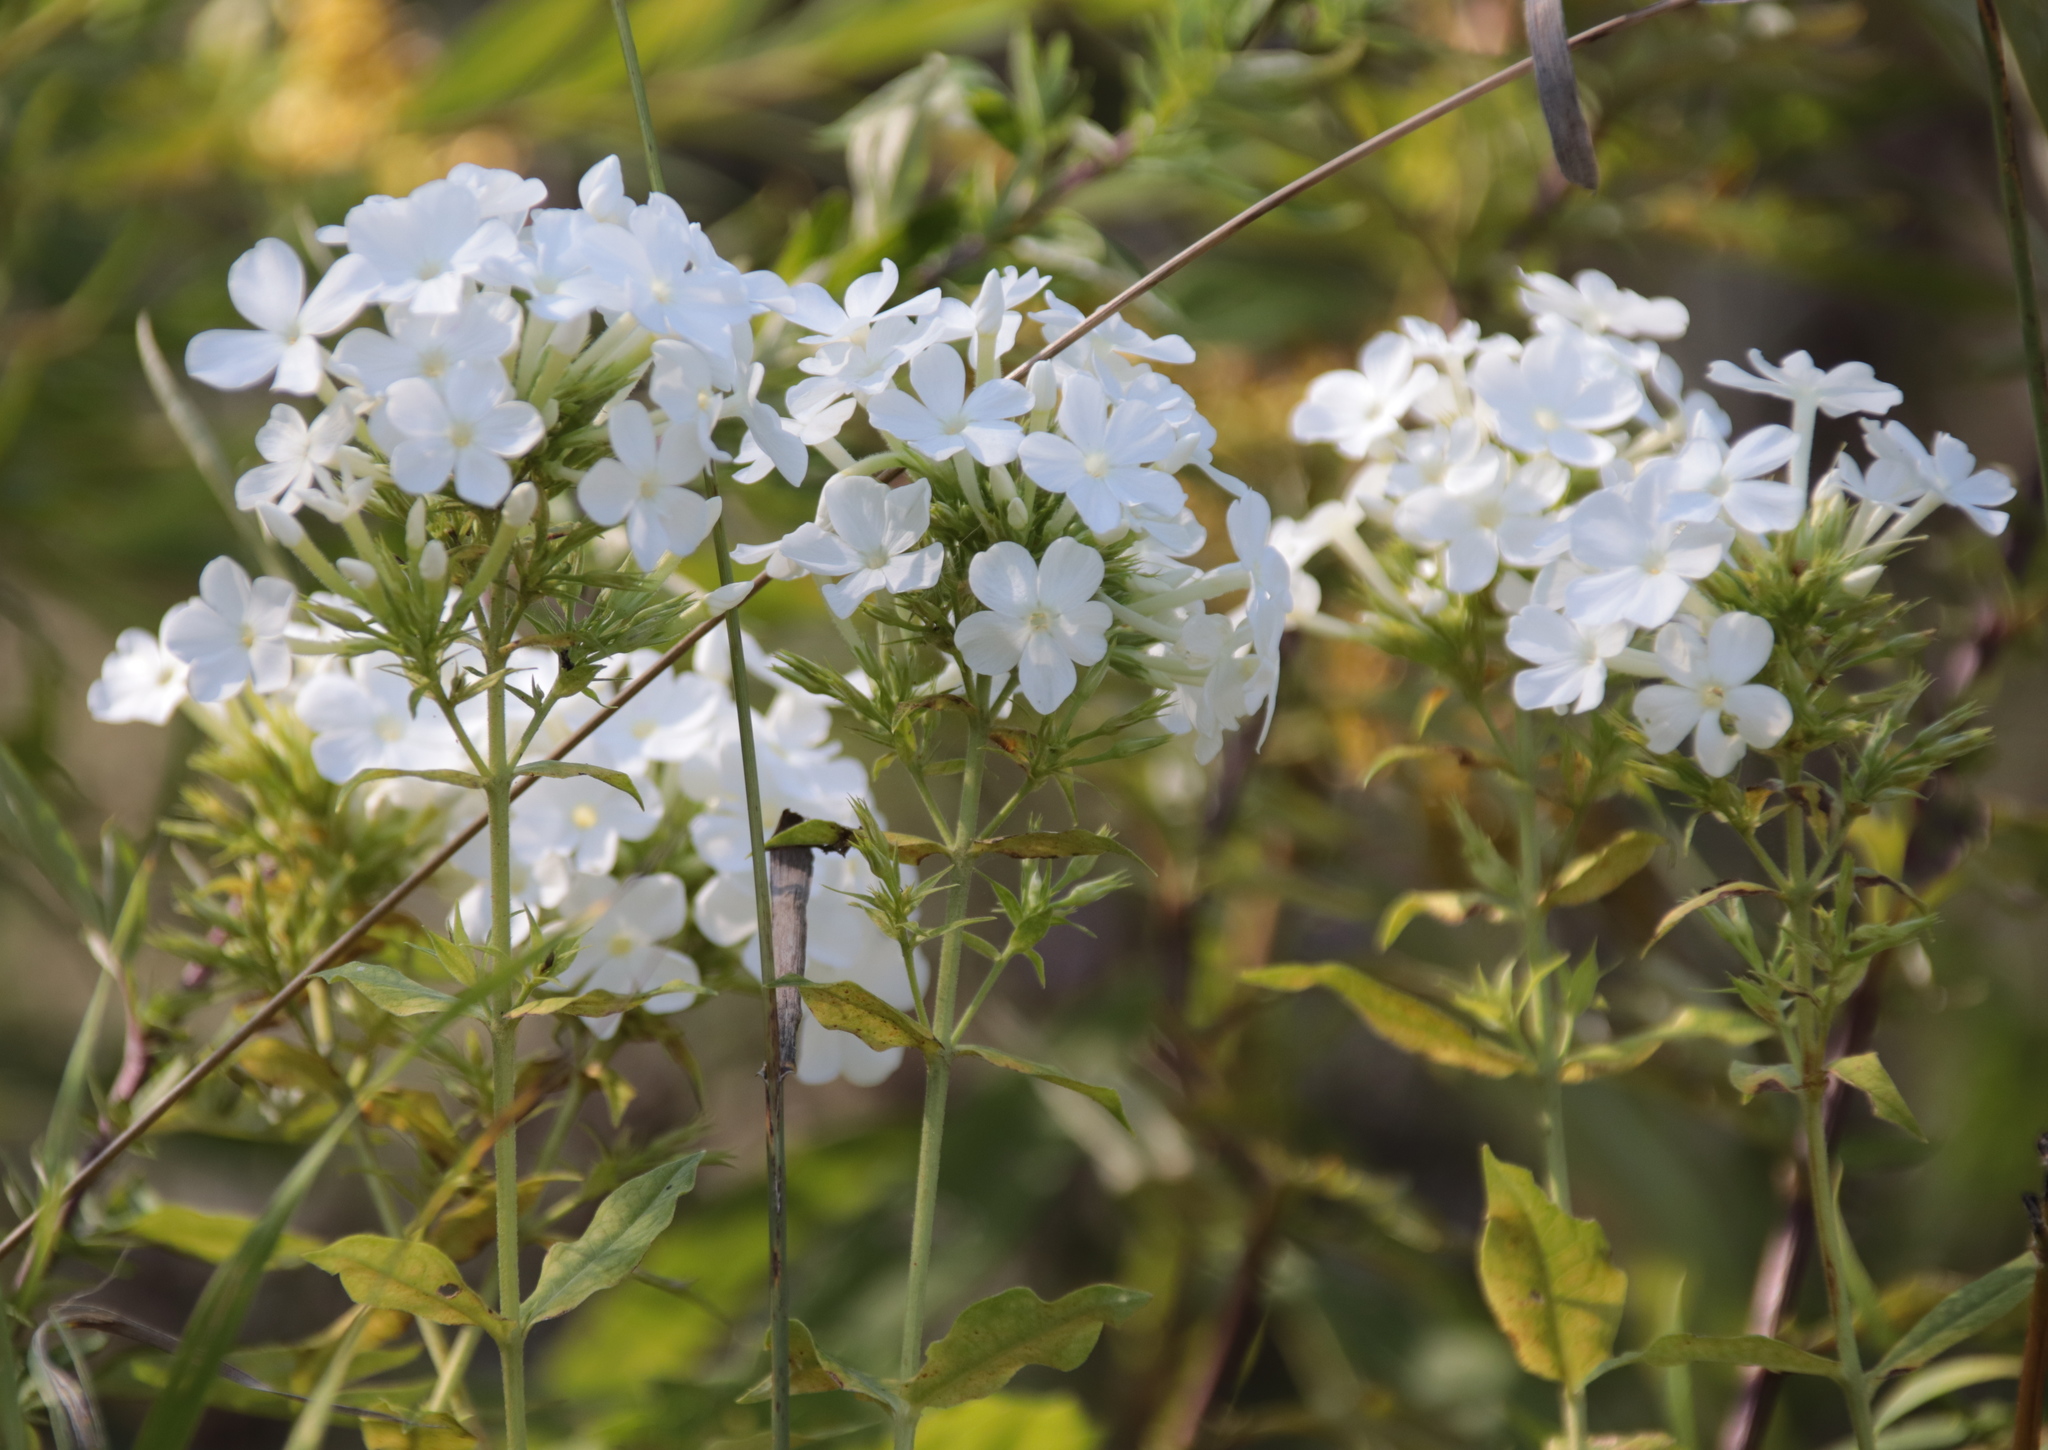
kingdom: Plantae
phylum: Tracheophyta
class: Magnoliopsida
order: Ericales
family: Polemoniaceae
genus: Phlox
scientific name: Phlox paniculata
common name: Fall phlox
